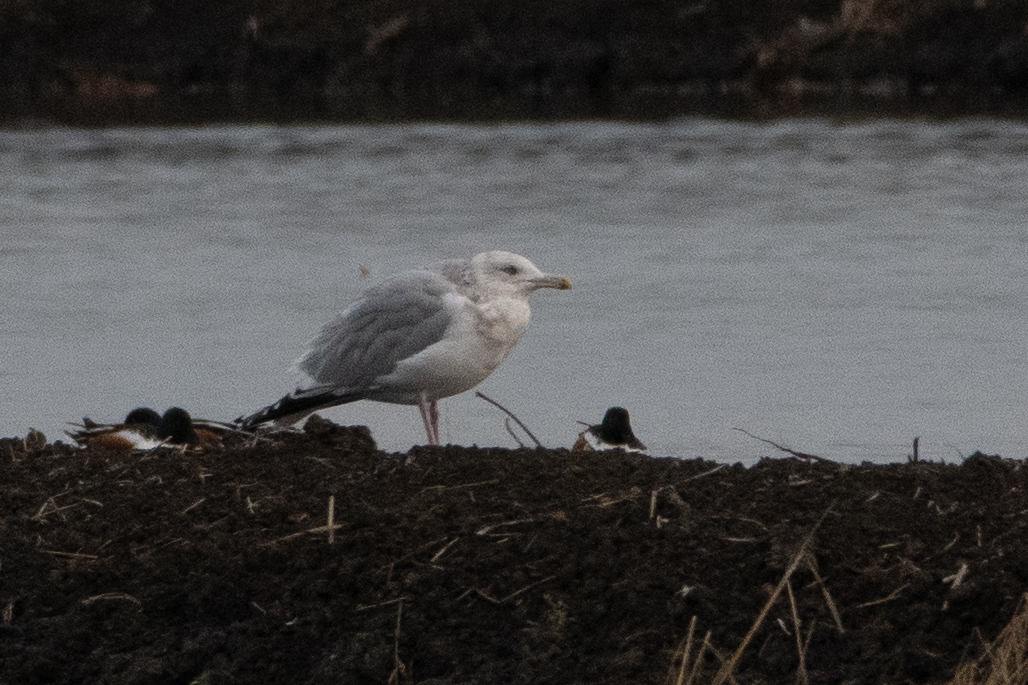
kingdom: Animalia
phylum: Chordata
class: Aves
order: Charadriiformes
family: Laridae
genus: Larus
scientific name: Larus argentatus
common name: Herring gull
